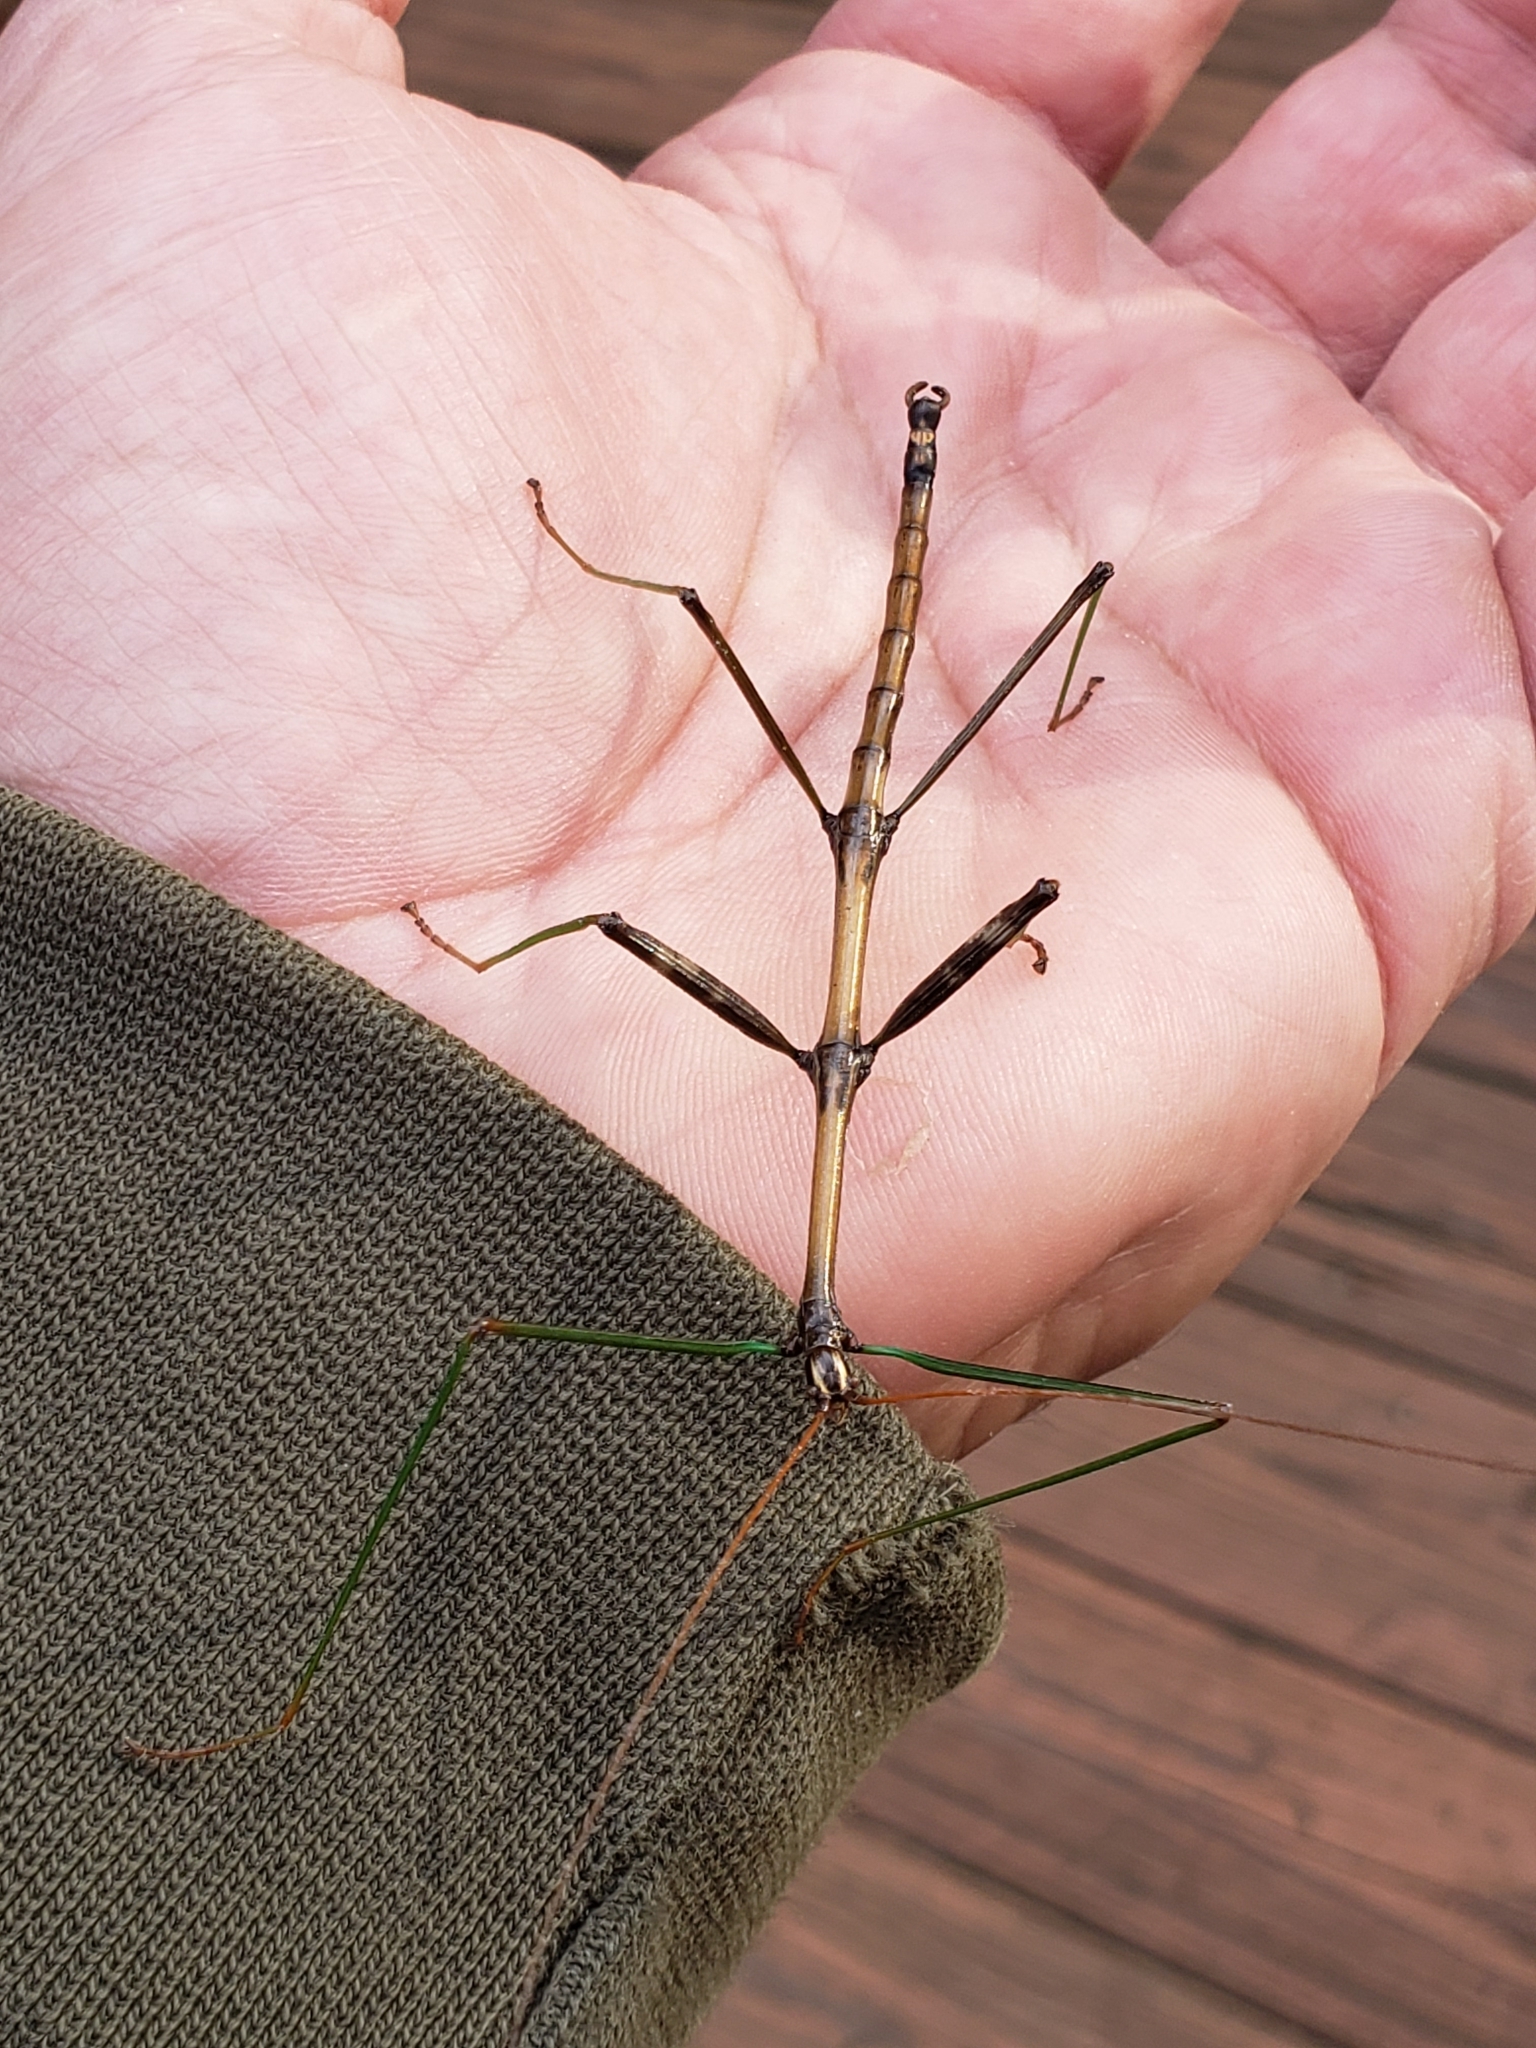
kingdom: Animalia
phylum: Arthropoda
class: Insecta
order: Phasmida
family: Diapheromeridae
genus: Diapheromera
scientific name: Diapheromera femorata
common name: Common american walkingstick
